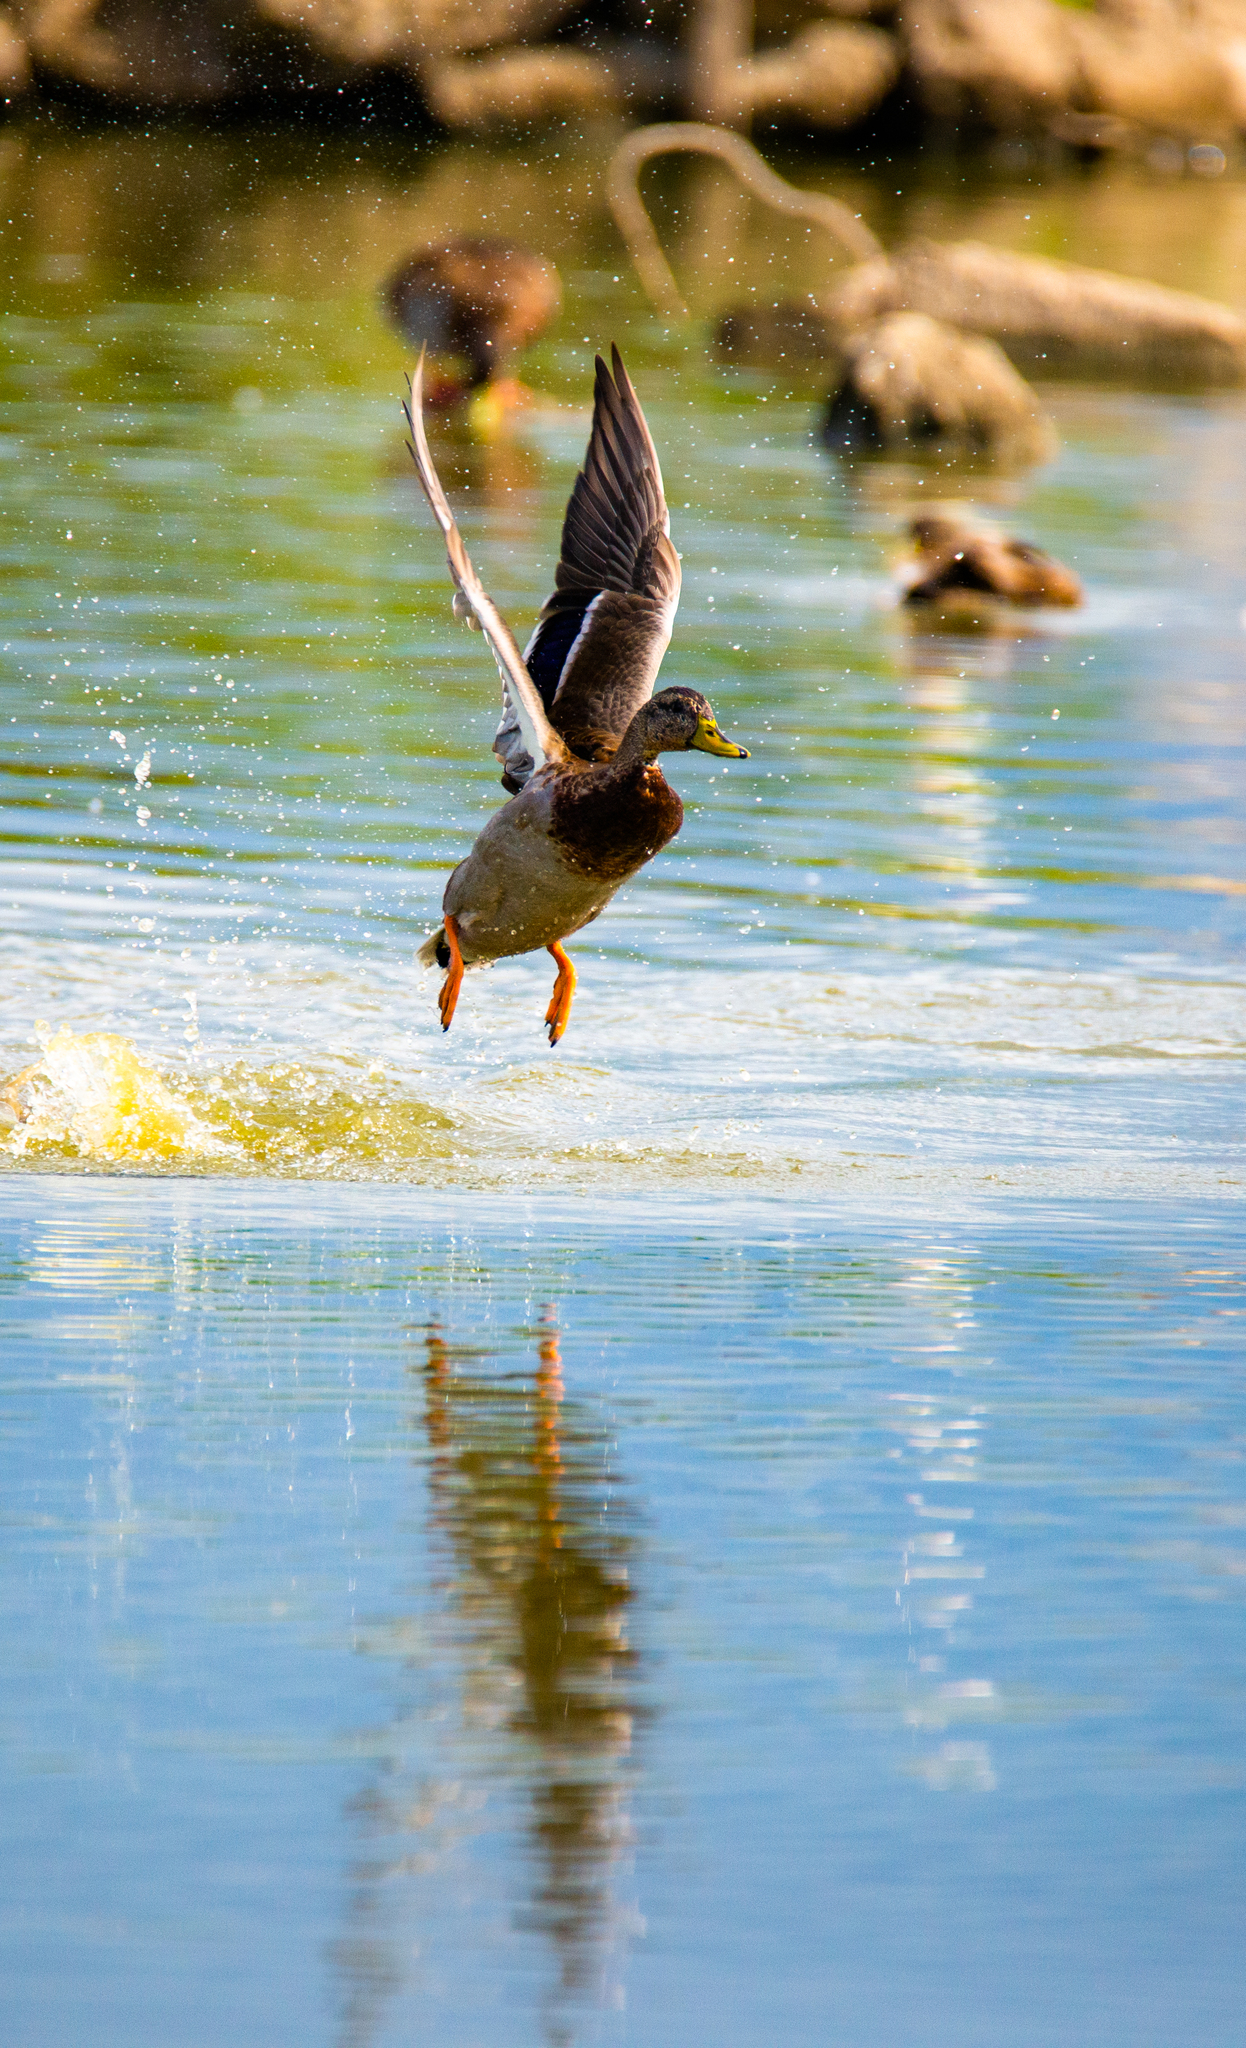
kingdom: Animalia
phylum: Chordata
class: Aves
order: Anseriformes
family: Anatidae
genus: Anas
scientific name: Anas platyrhynchos
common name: Mallard
